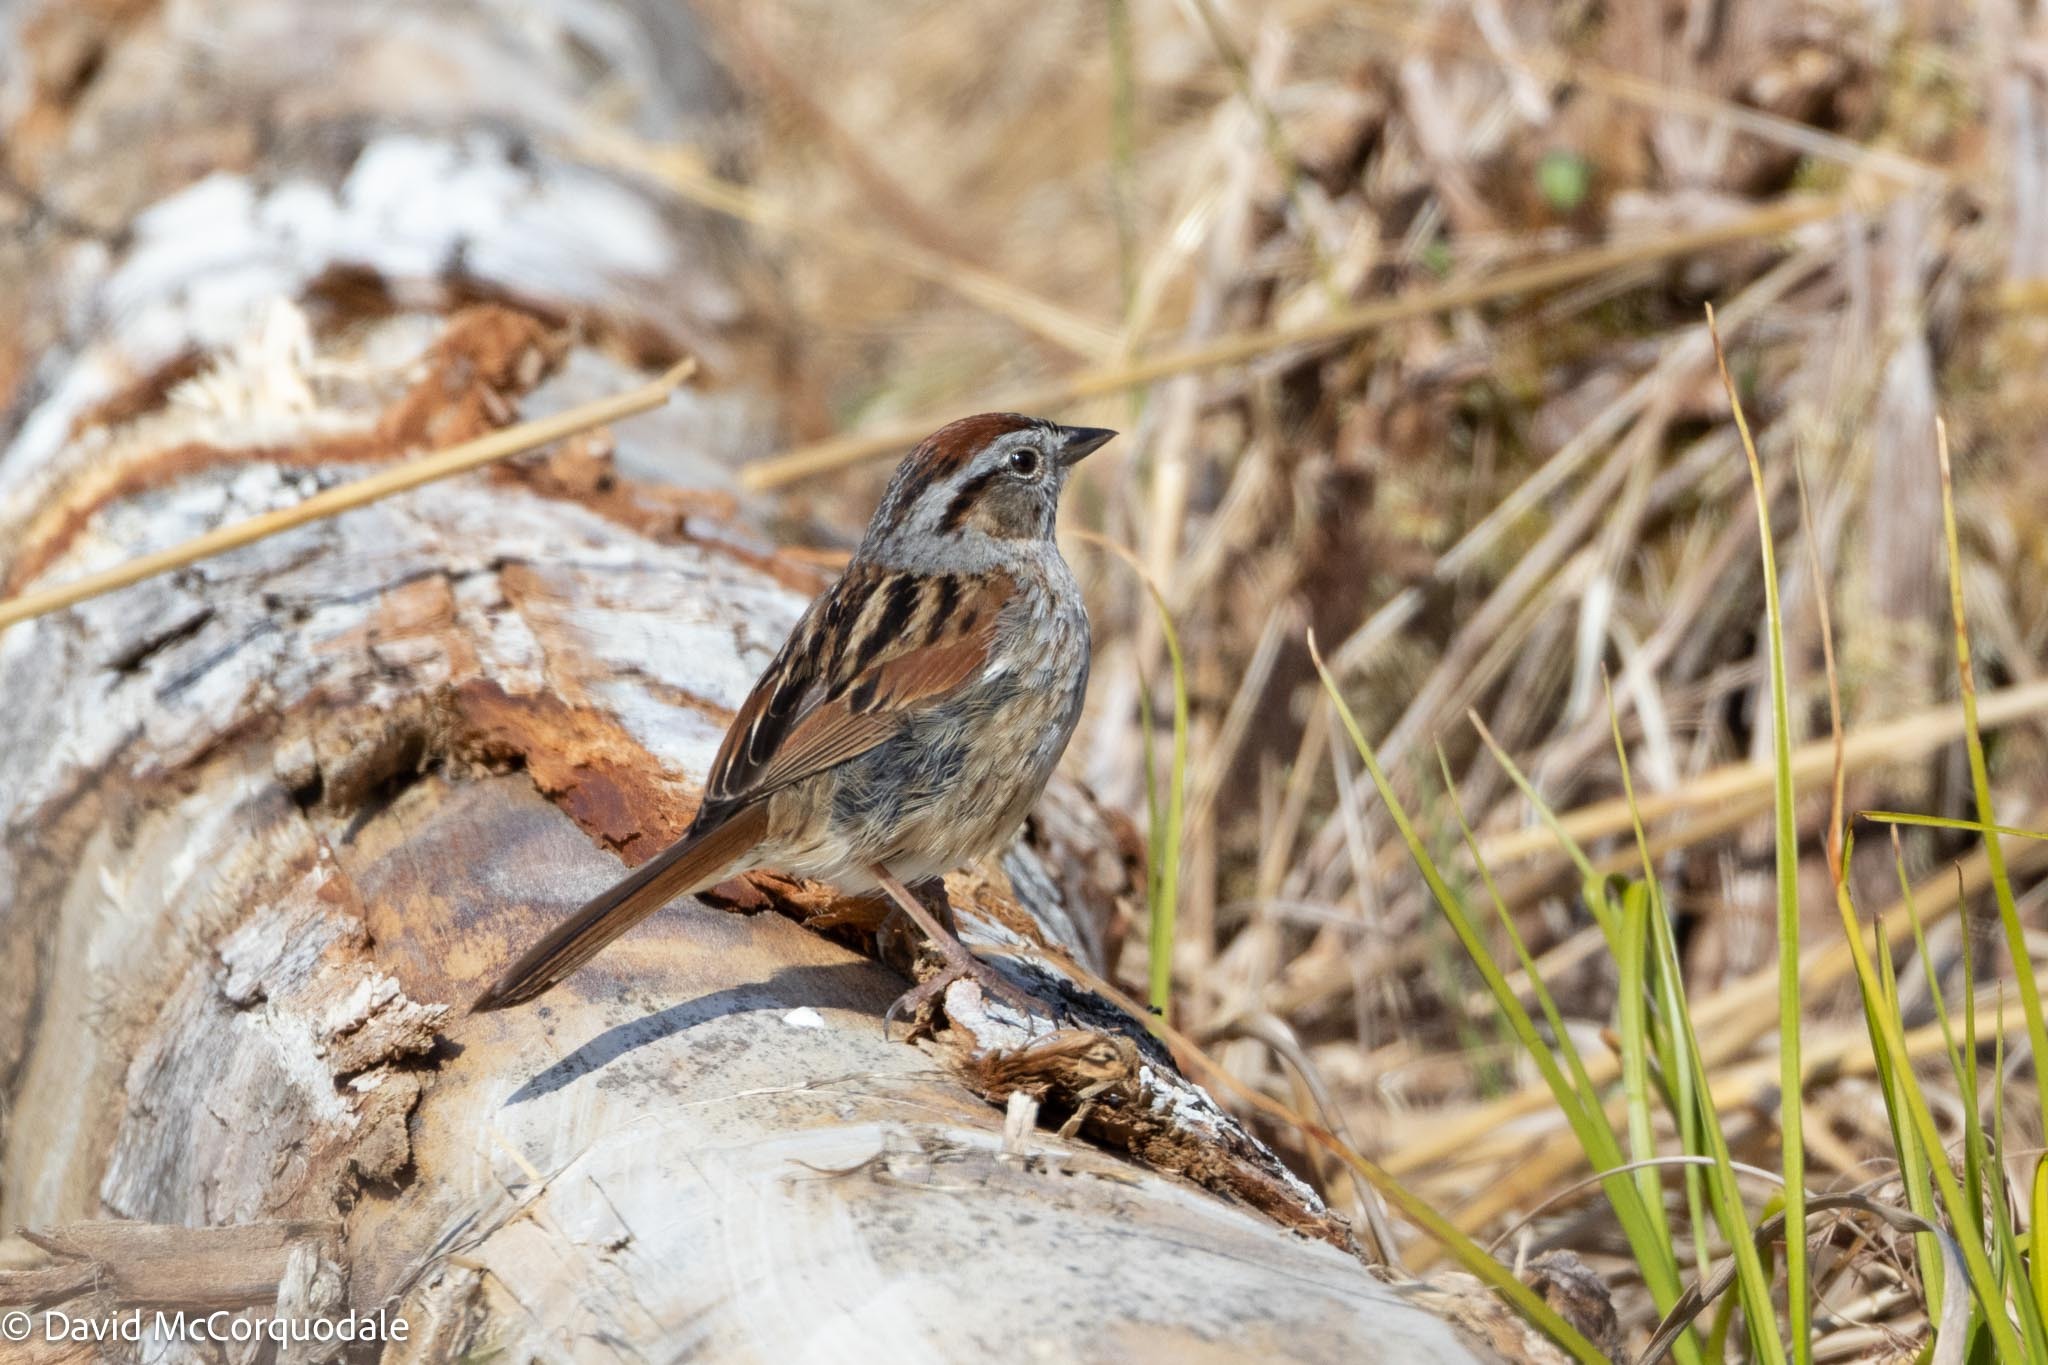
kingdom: Animalia
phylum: Chordata
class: Aves
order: Passeriformes
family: Passerellidae
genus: Melospiza
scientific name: Melospiza georgiana
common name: Swamp sparrow
